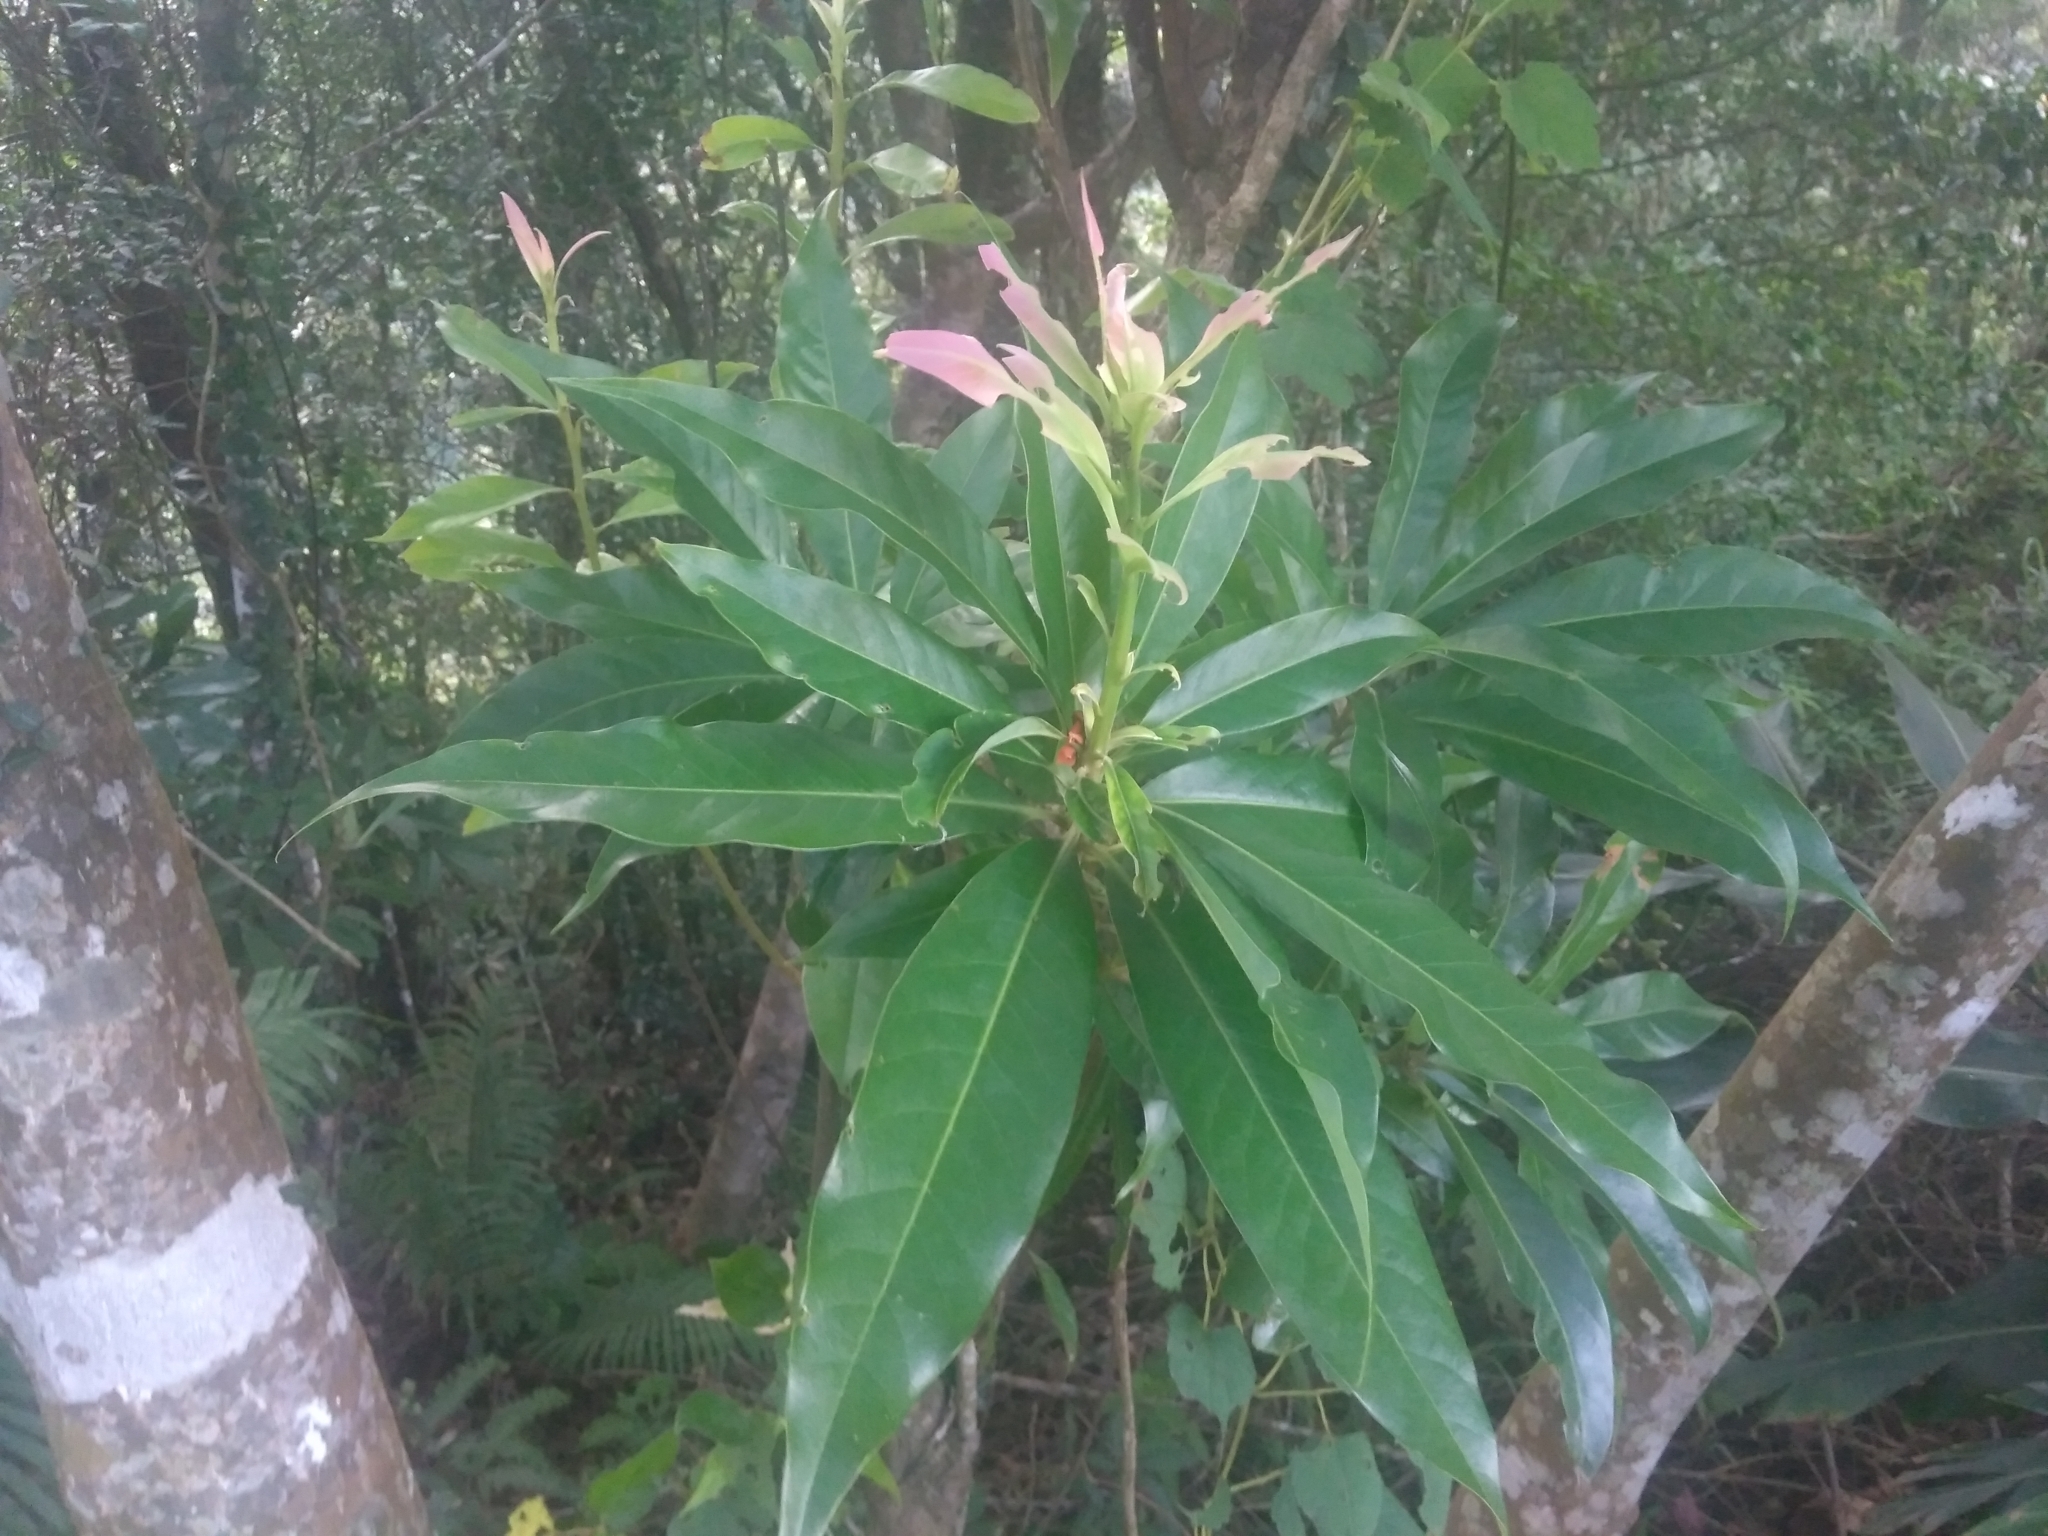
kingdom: Plantae
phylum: Tracheophyta
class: Magnoliopsida
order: Ericales
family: Theaceae
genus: Schima
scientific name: Schima superba
